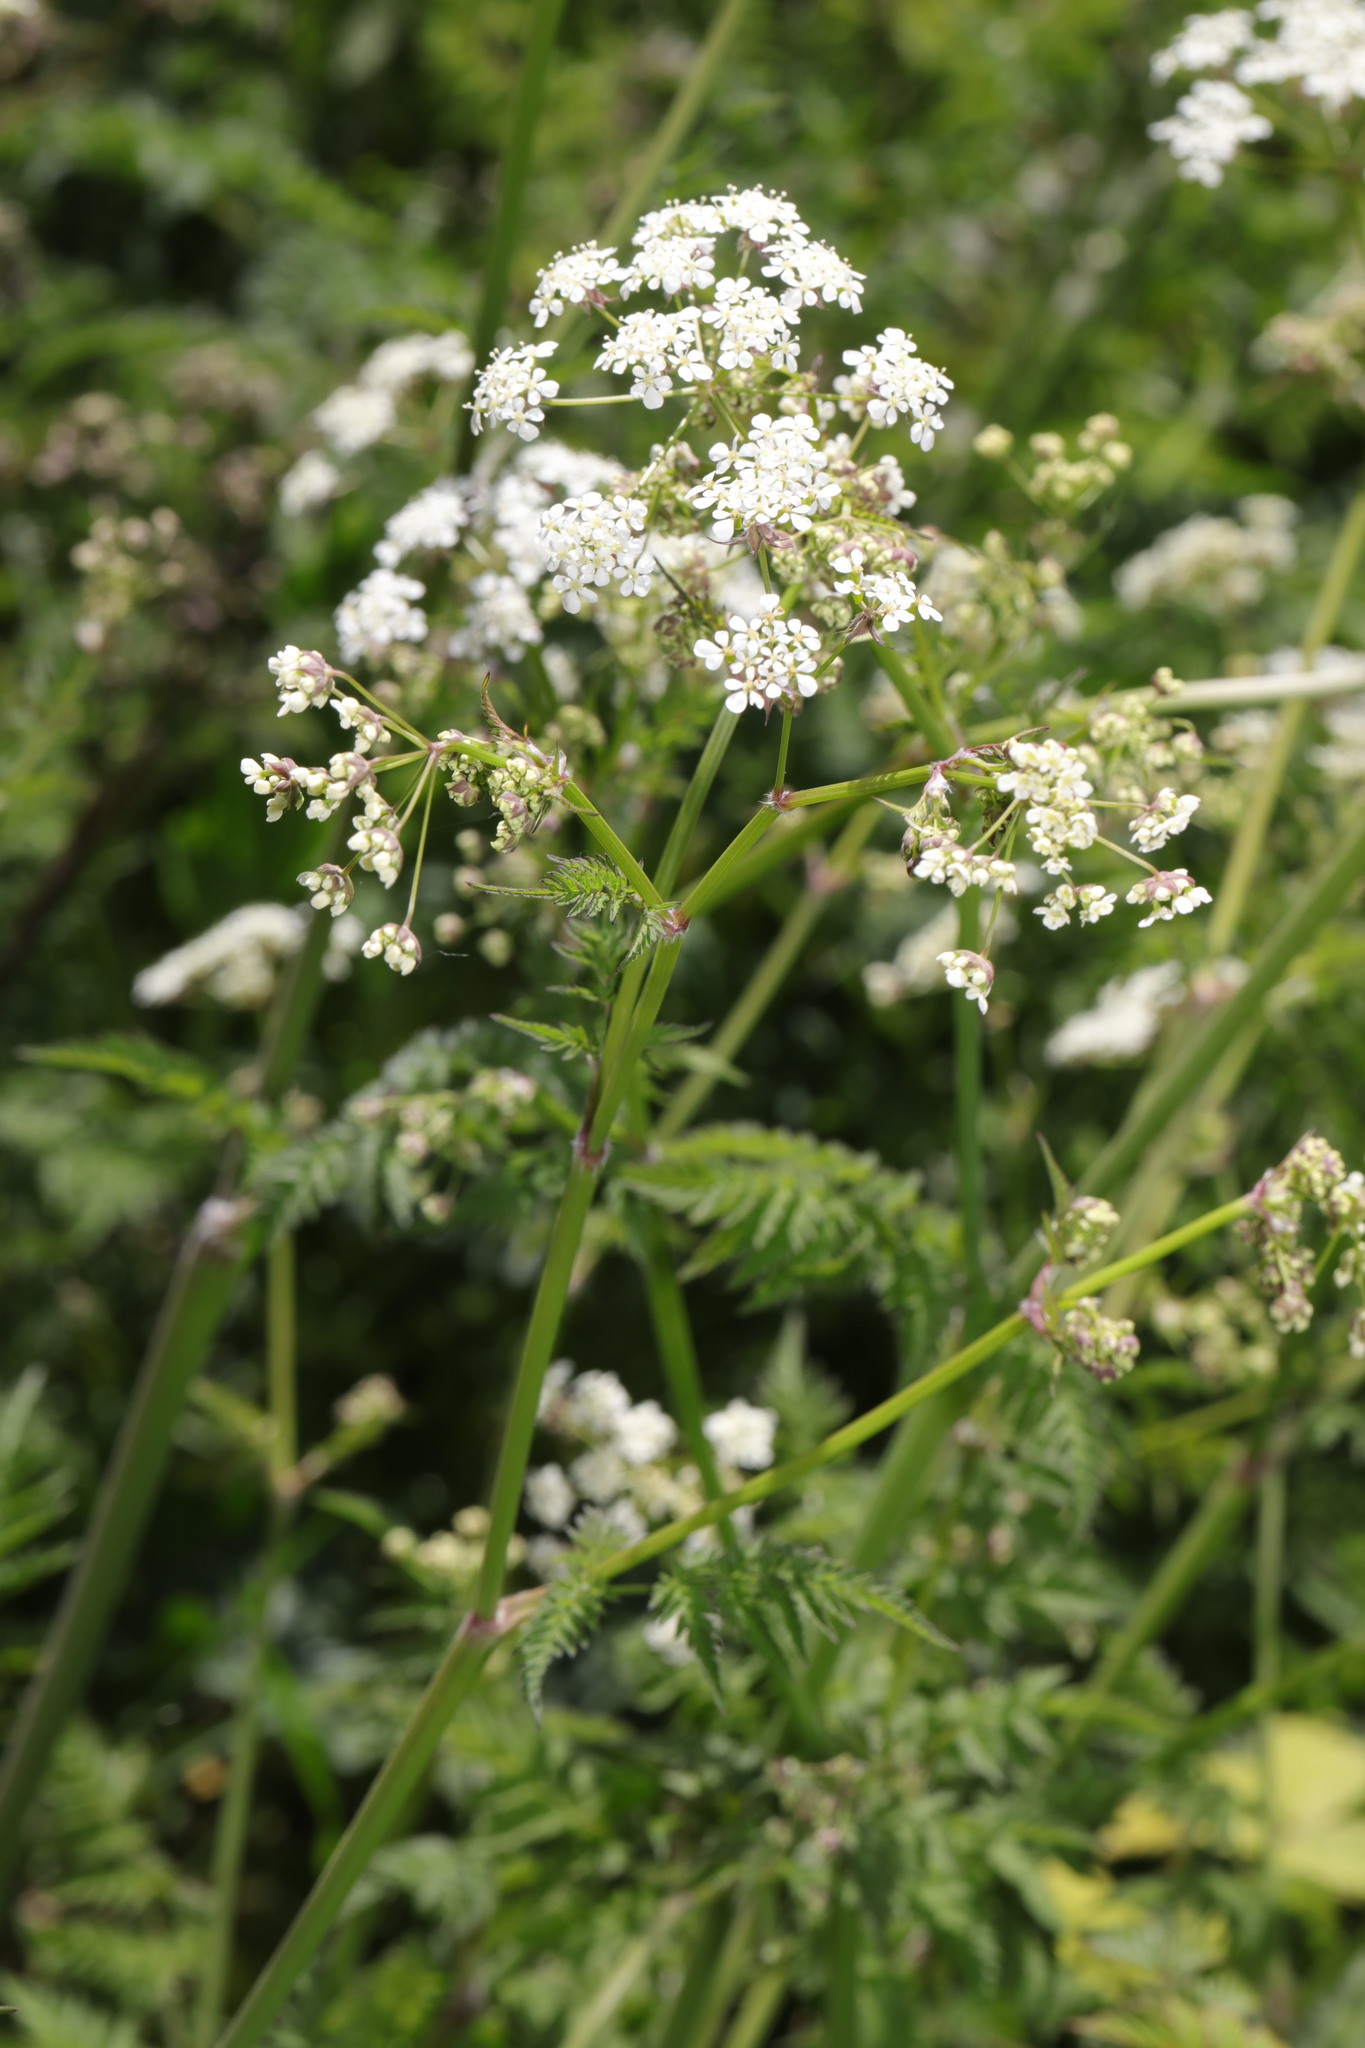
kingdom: Plantae
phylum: Tracheophyta
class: Magnoliopsida
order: Apiales
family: Apiaceae
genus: Anthriscus
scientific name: Anthriscus sylvestris
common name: Cow parsley
